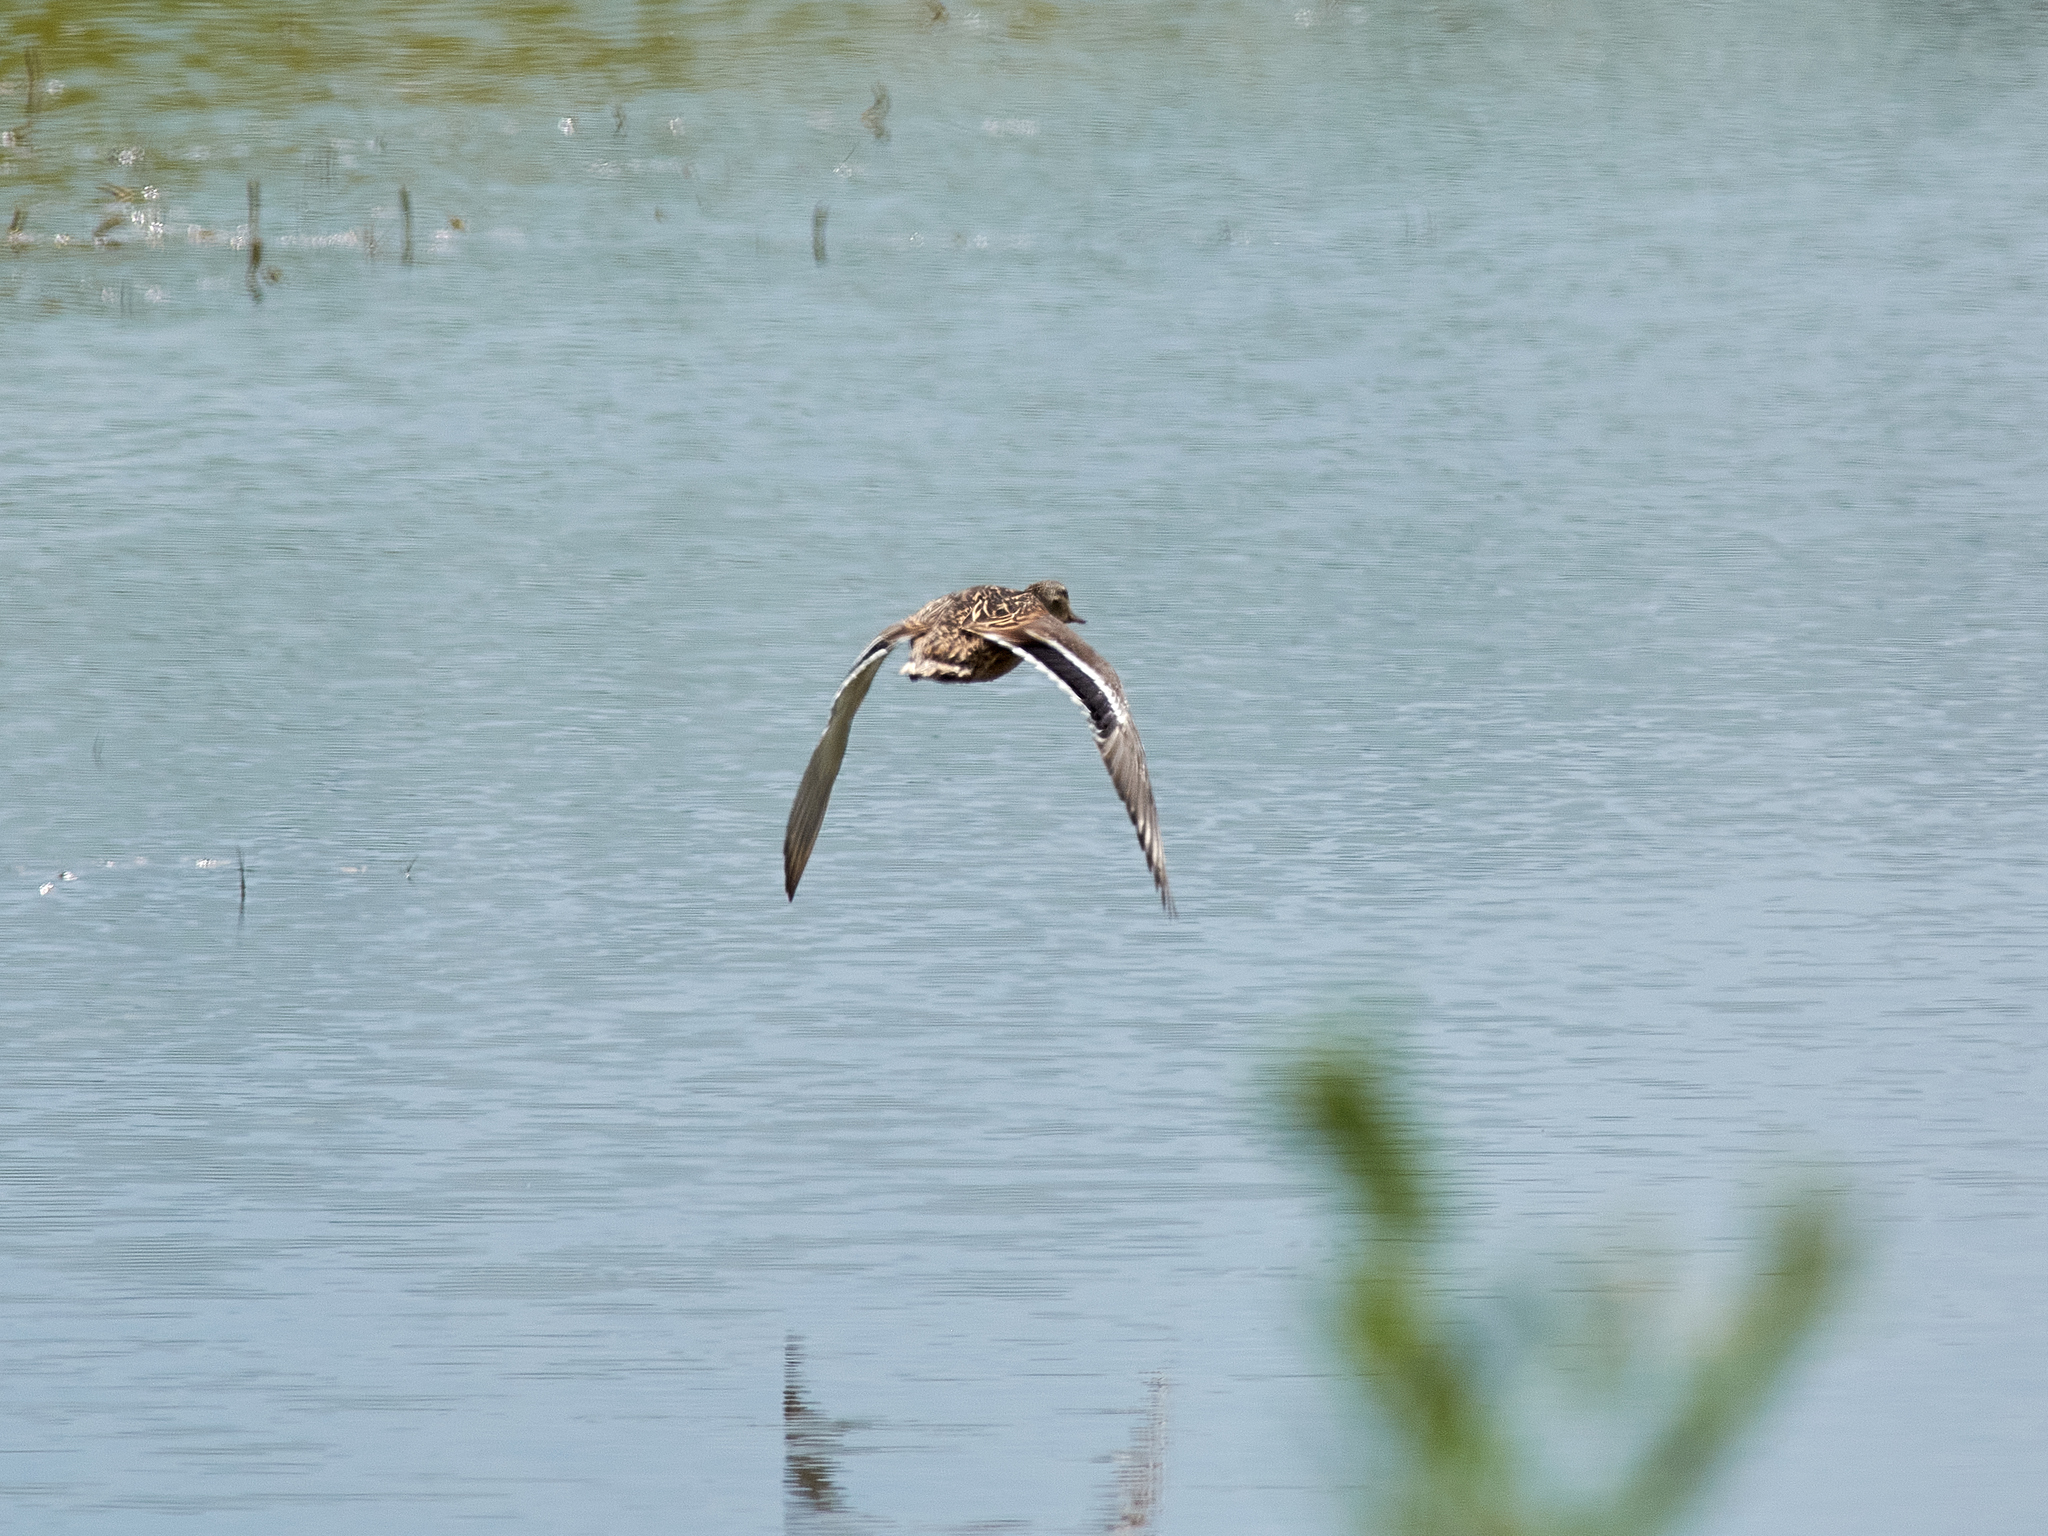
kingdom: Animalia
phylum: Chordata
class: Aves
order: Anseriformes
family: Anatidae
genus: Anas
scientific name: Anas platyrhynchos
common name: Mallard
